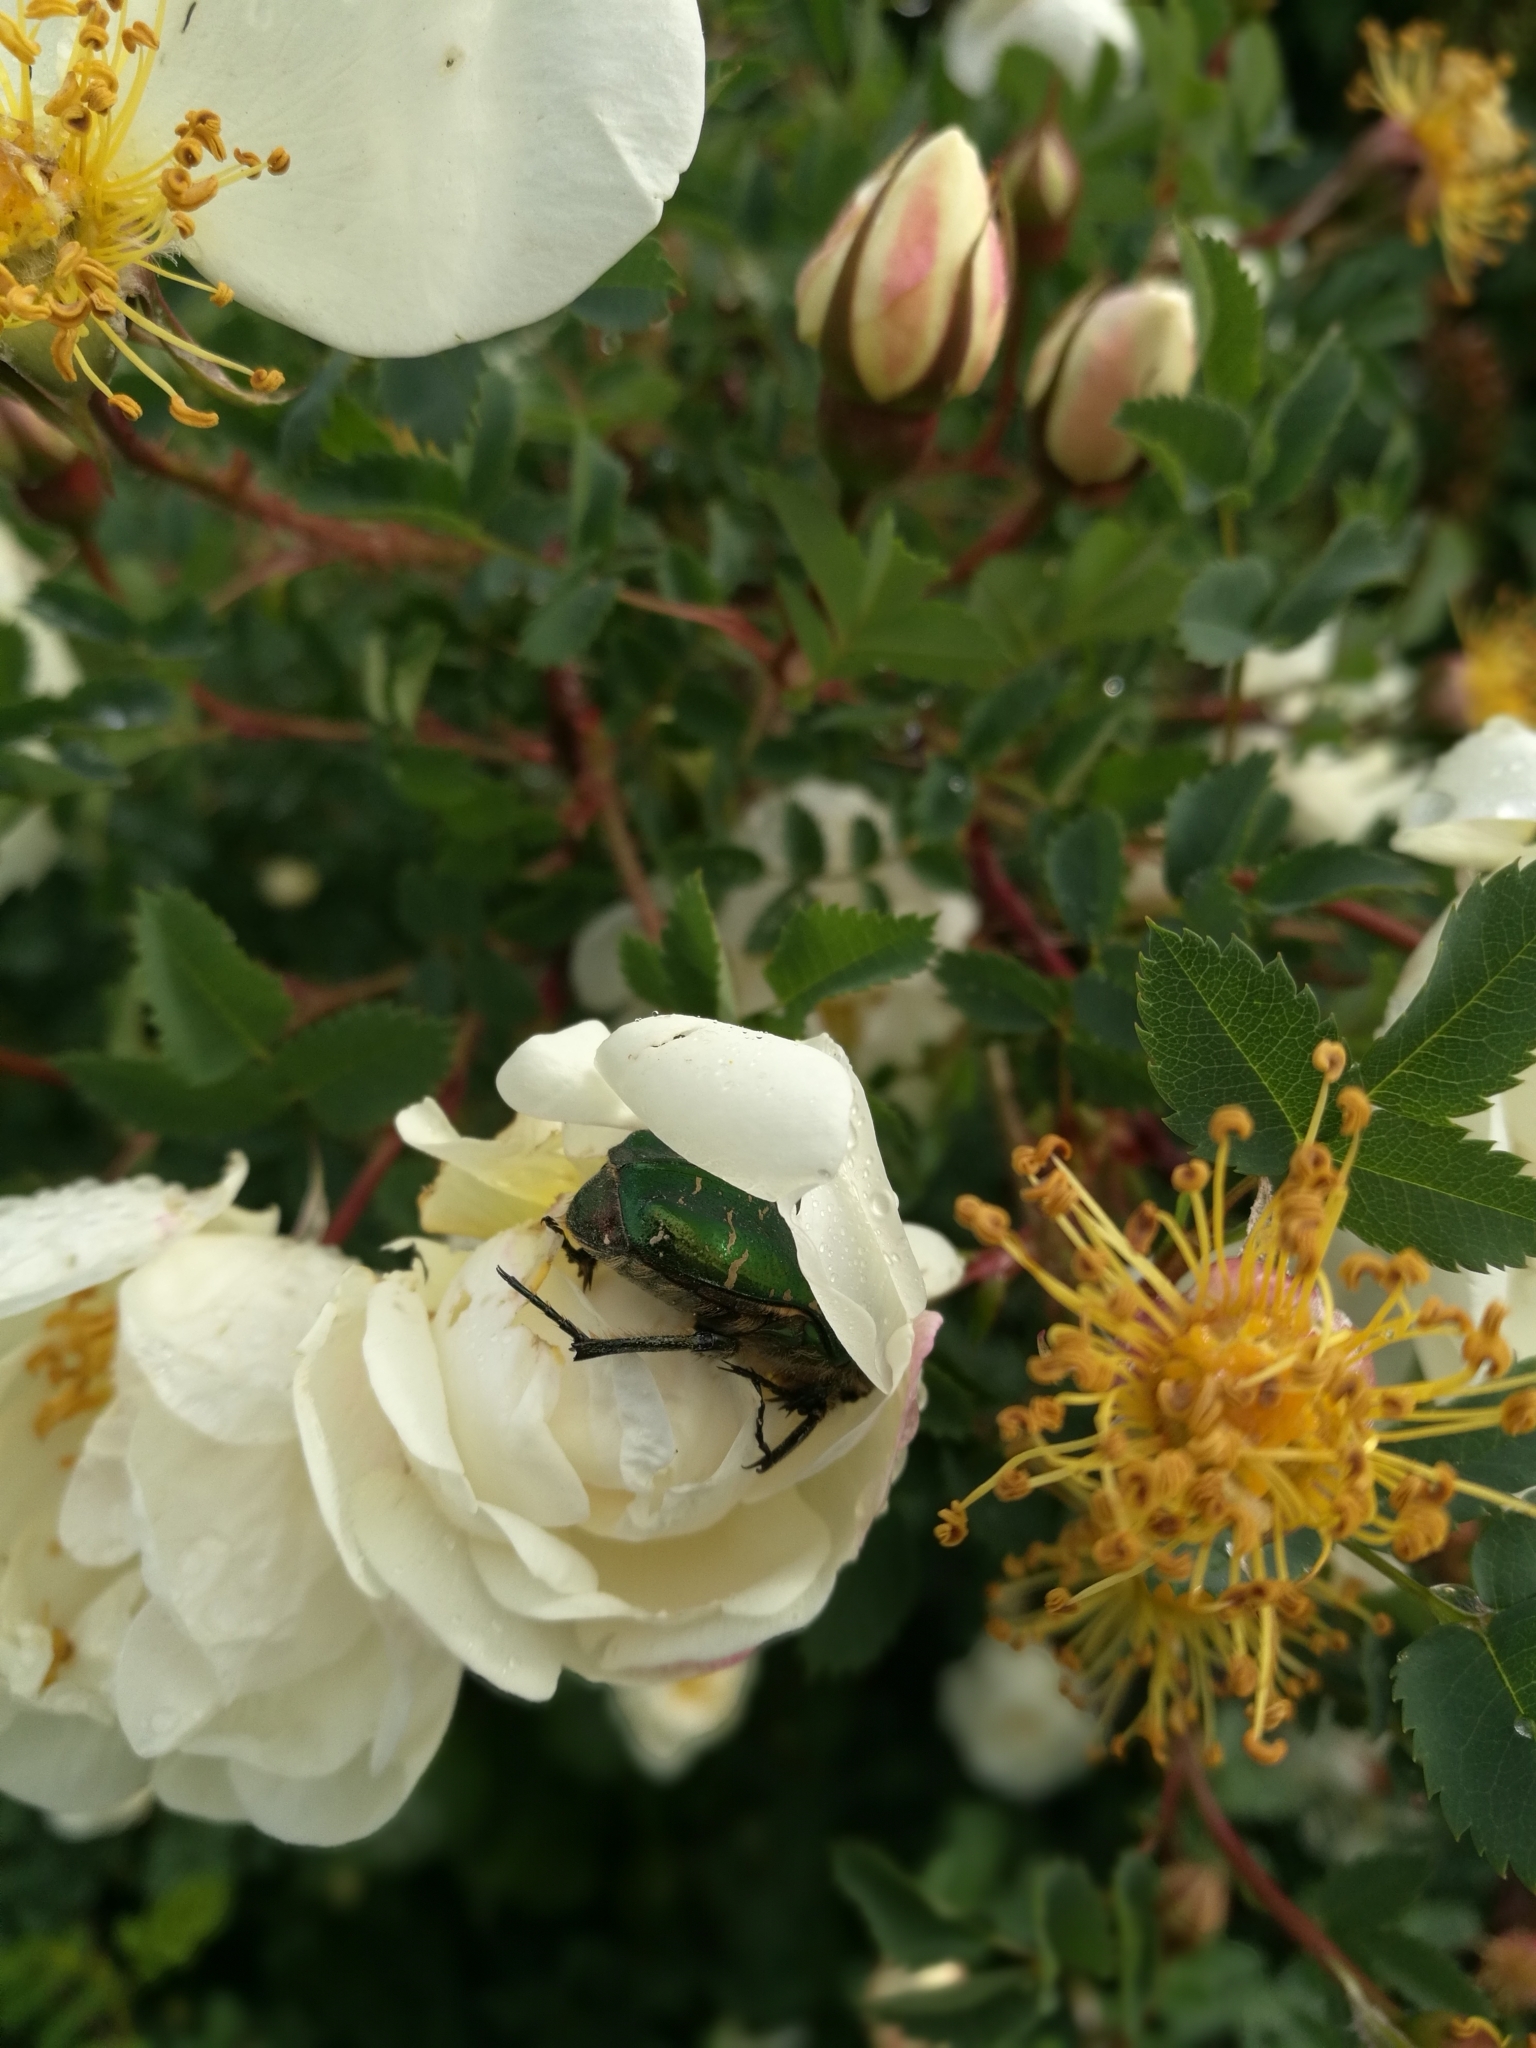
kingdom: Animalia
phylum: Arthropoda
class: Insecta
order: Coleoptera
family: Scarabaeidae
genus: Cetonia
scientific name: Cetonia aurata
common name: Rose chafer
